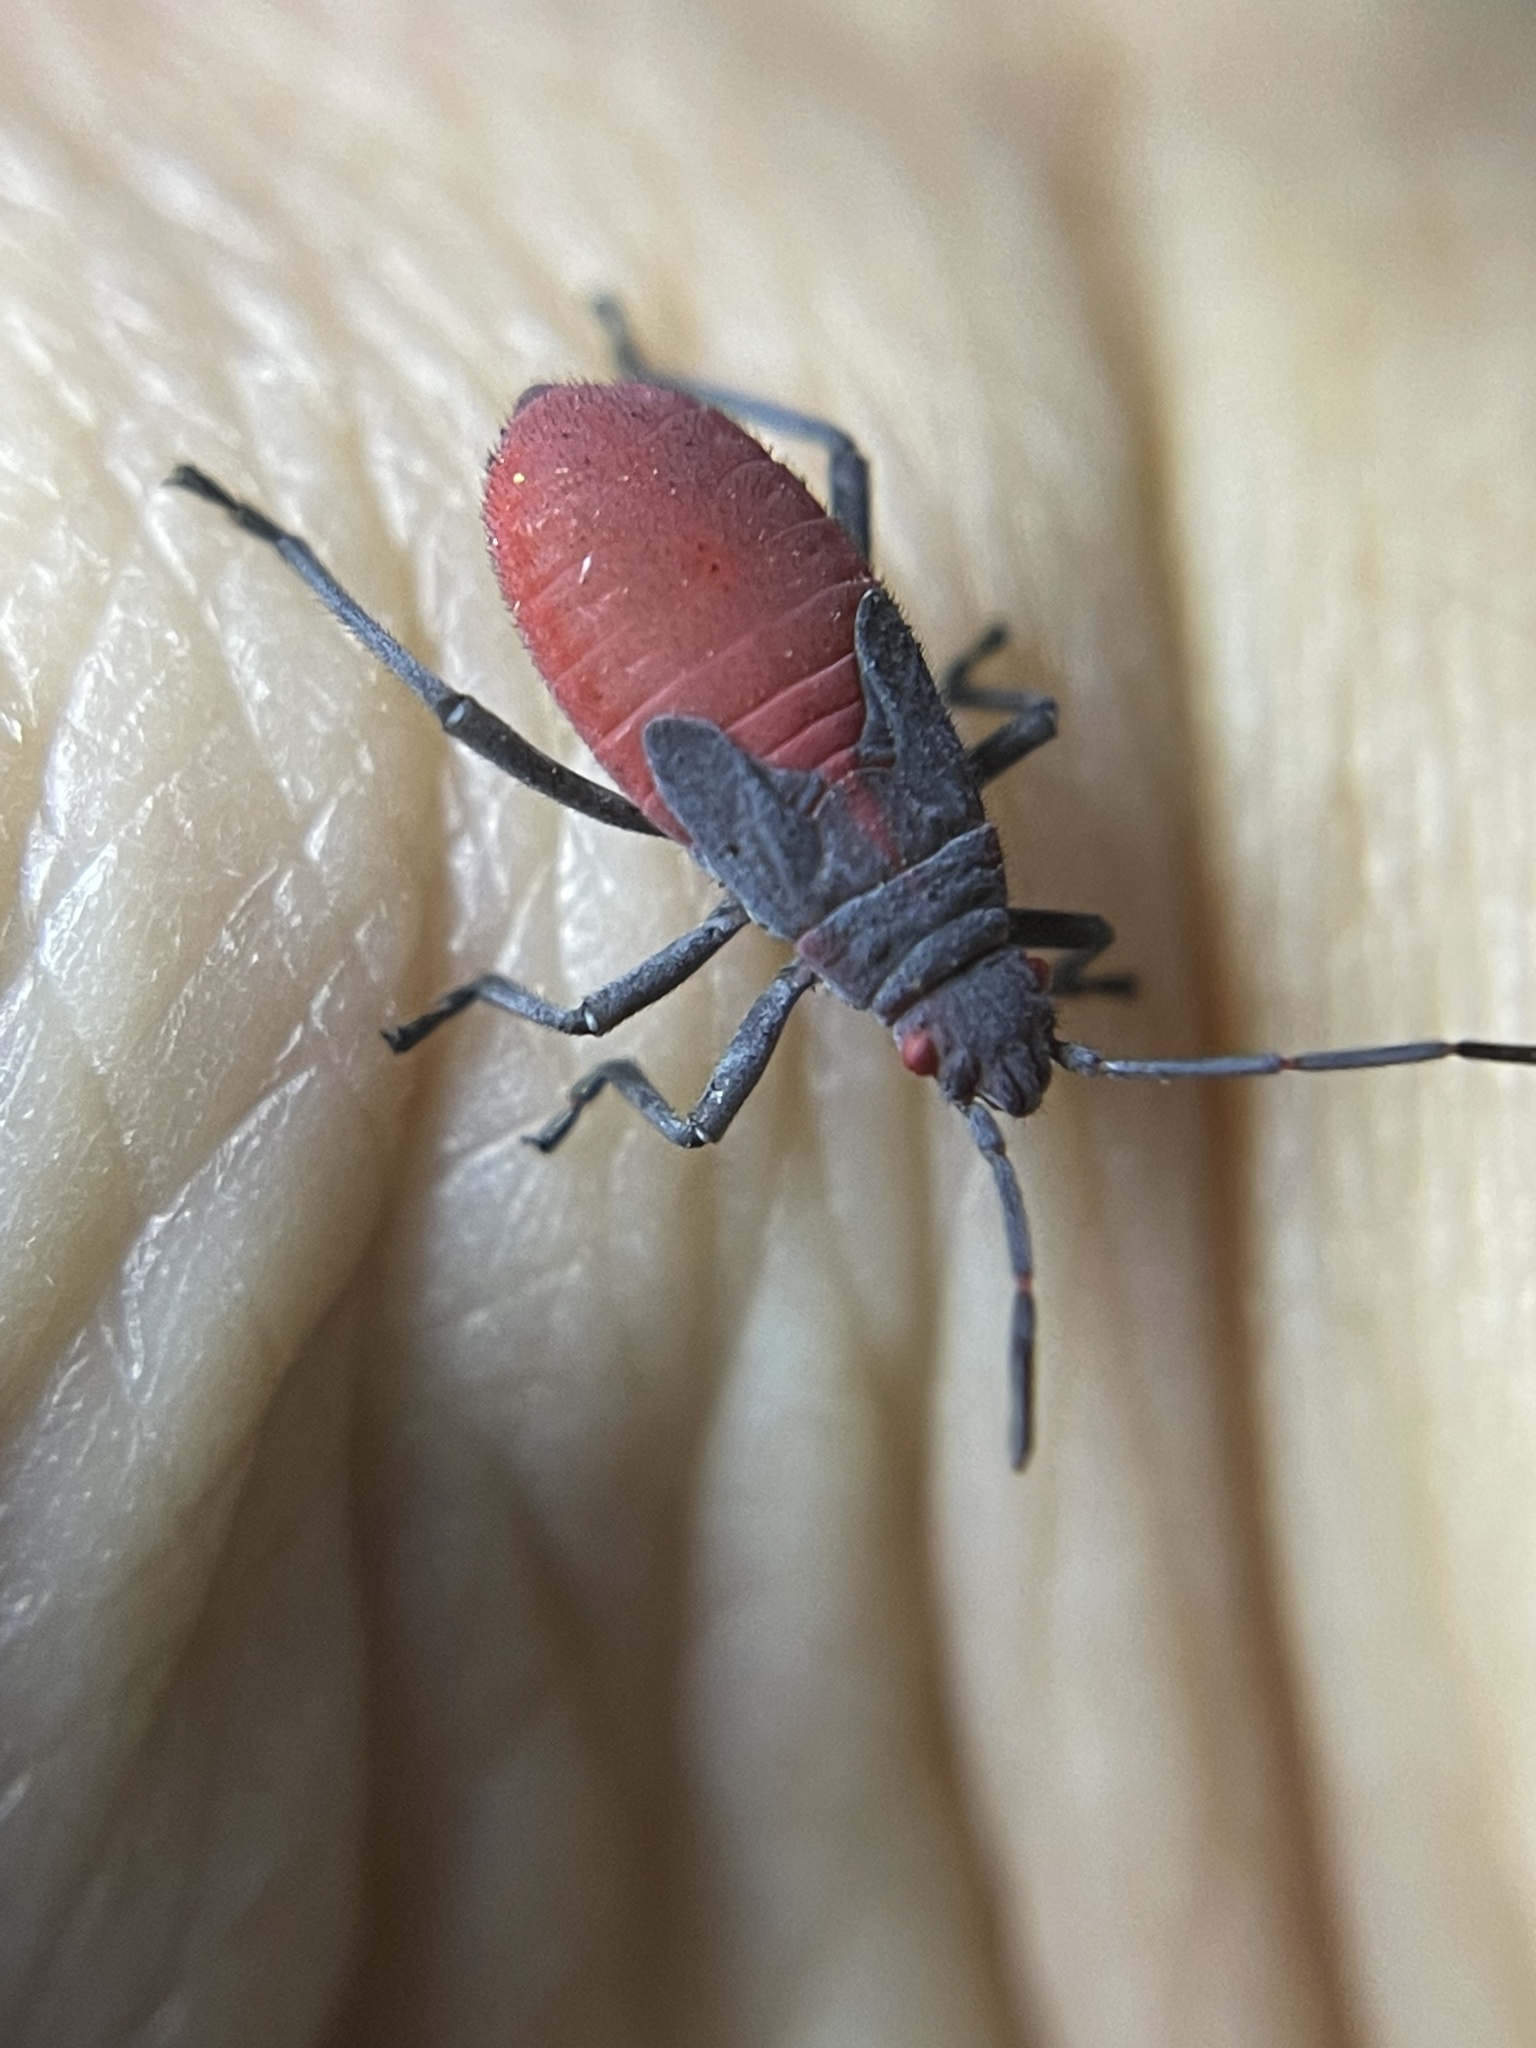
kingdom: Animalia
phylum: Arthropoda
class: Insecta
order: Hemiptera
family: Rhopalidae
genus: Jadera
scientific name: Jadera haematoloma
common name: Red-shouldered bug
